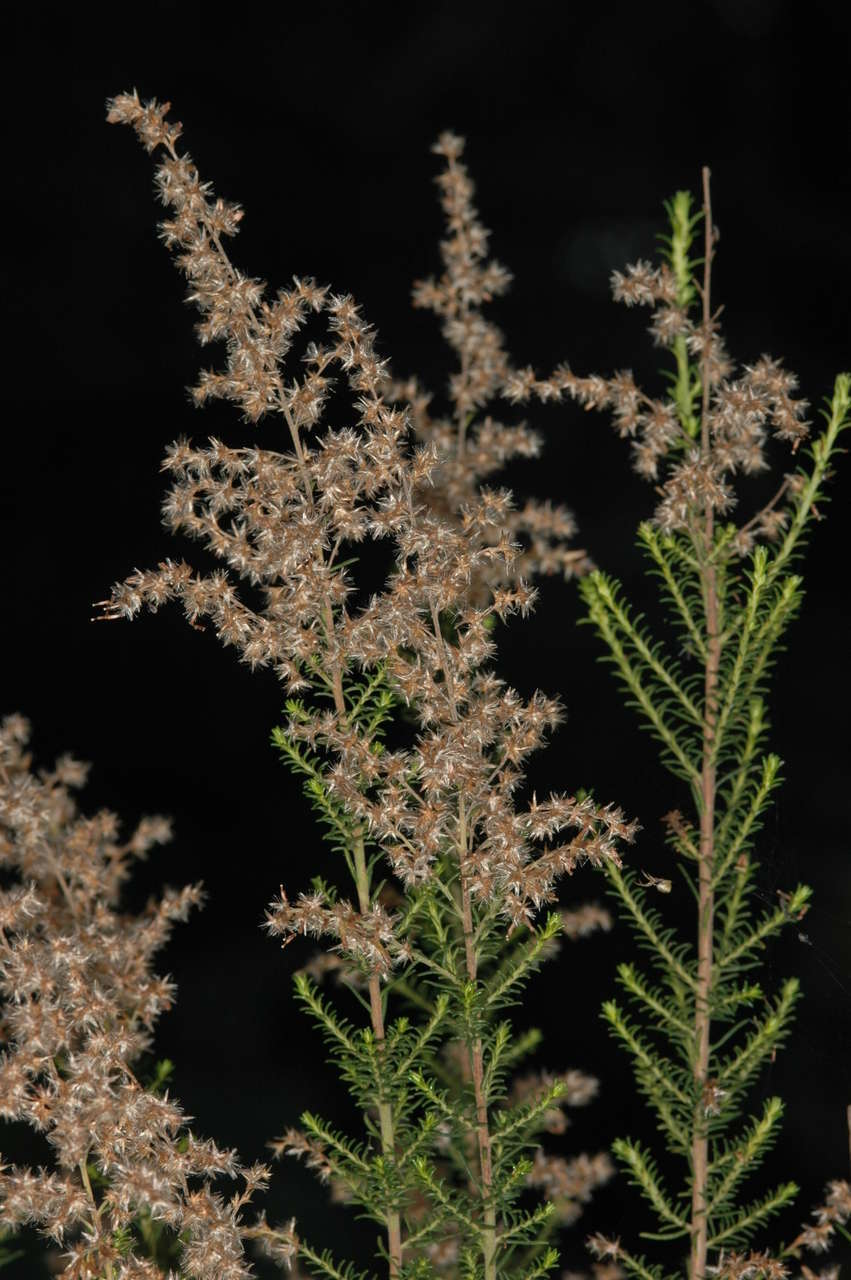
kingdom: Plantae
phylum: Tracheophyta
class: Magnoliopsida
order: Asterales
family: Asteraceae
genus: Cassinia
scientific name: Cassinia sifton
